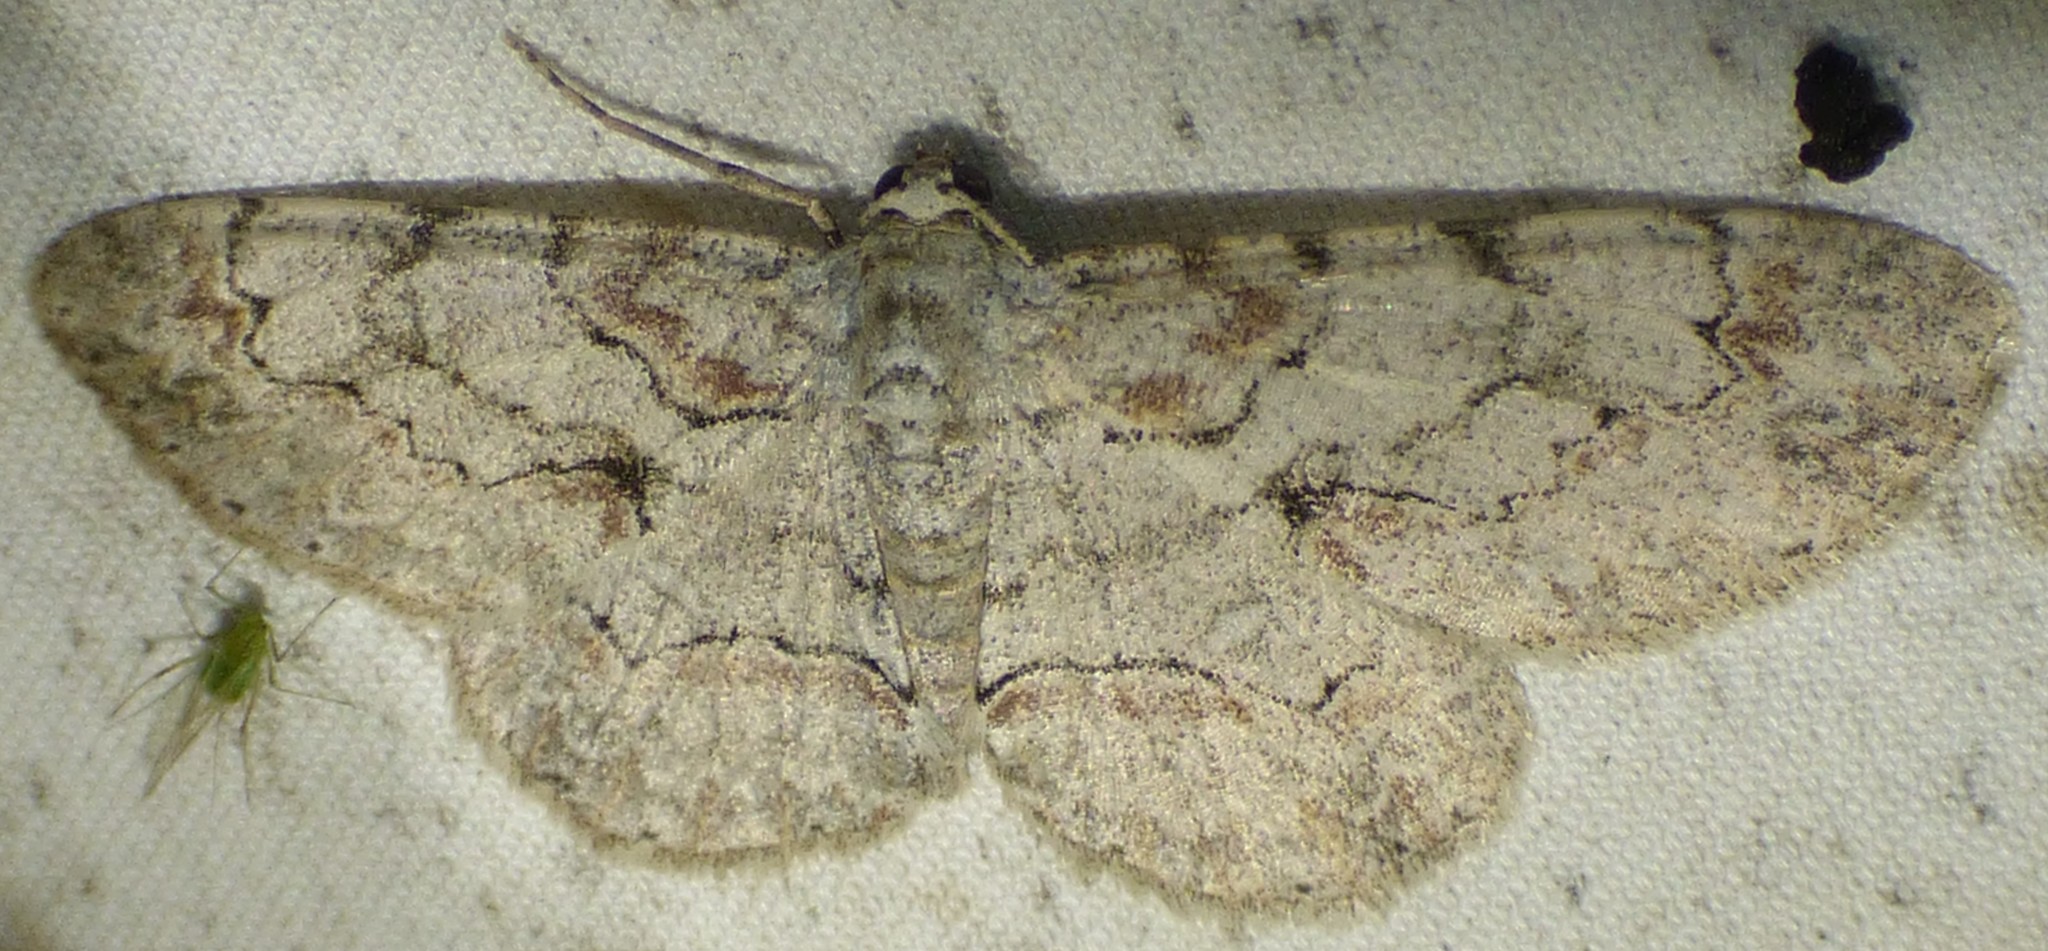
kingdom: Animalia
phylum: Arthropoda
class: Insecta
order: Lepidoptera
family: Geometridae
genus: Iridopsis
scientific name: Iridopsis defectaria
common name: Brown-shaded gray
